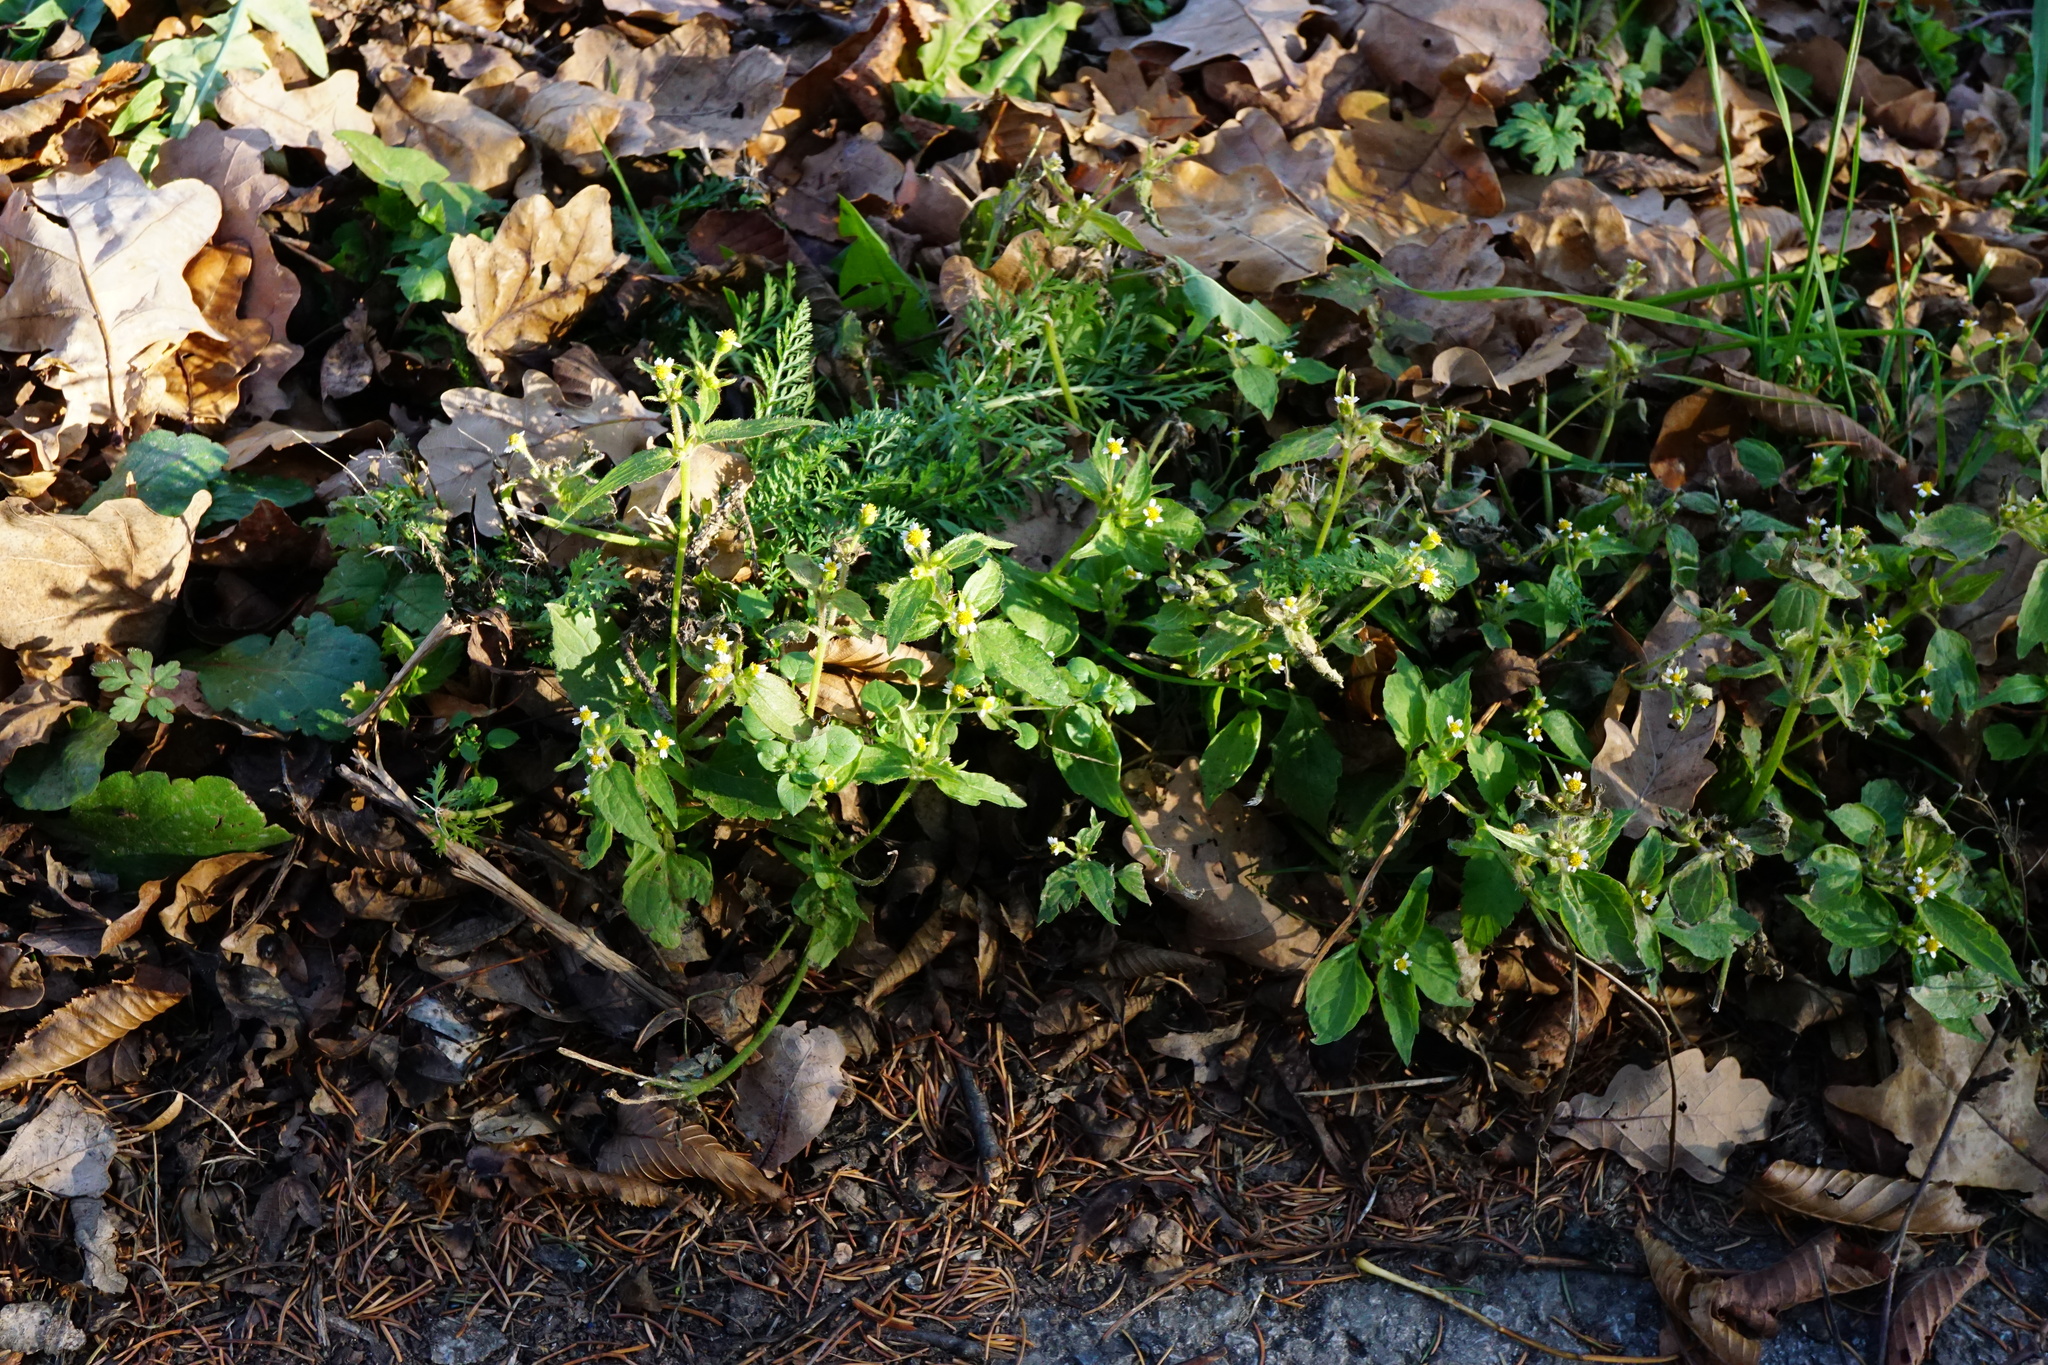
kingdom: Plantae
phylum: Tracheophyta
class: Magnoliopsida
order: Asterales
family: Asteraceae
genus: Galinsoga
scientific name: Galinsoga quadriradiata
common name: Shaggy soldier
